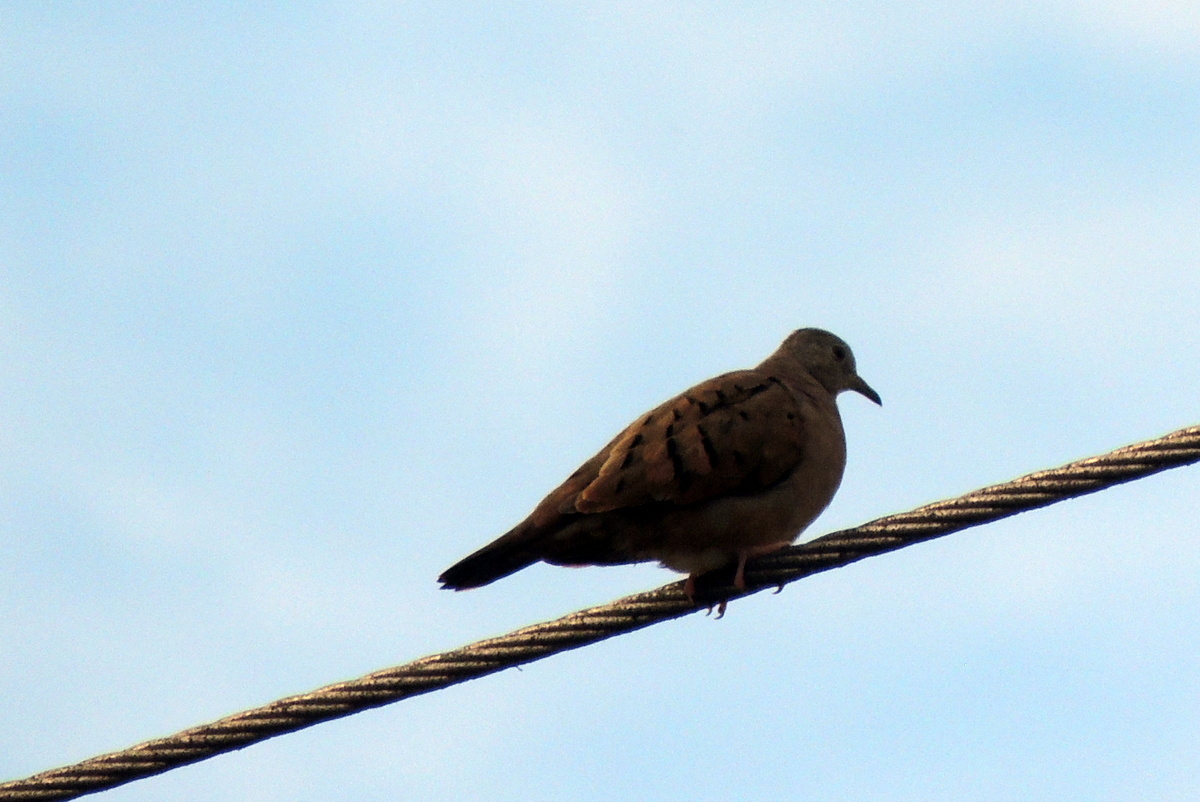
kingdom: Animalia
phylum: Chordata
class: Aves
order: Columbiformes
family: Columbidae
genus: Columbina
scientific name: Columbina talpacoti
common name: Ruddy ground dove
